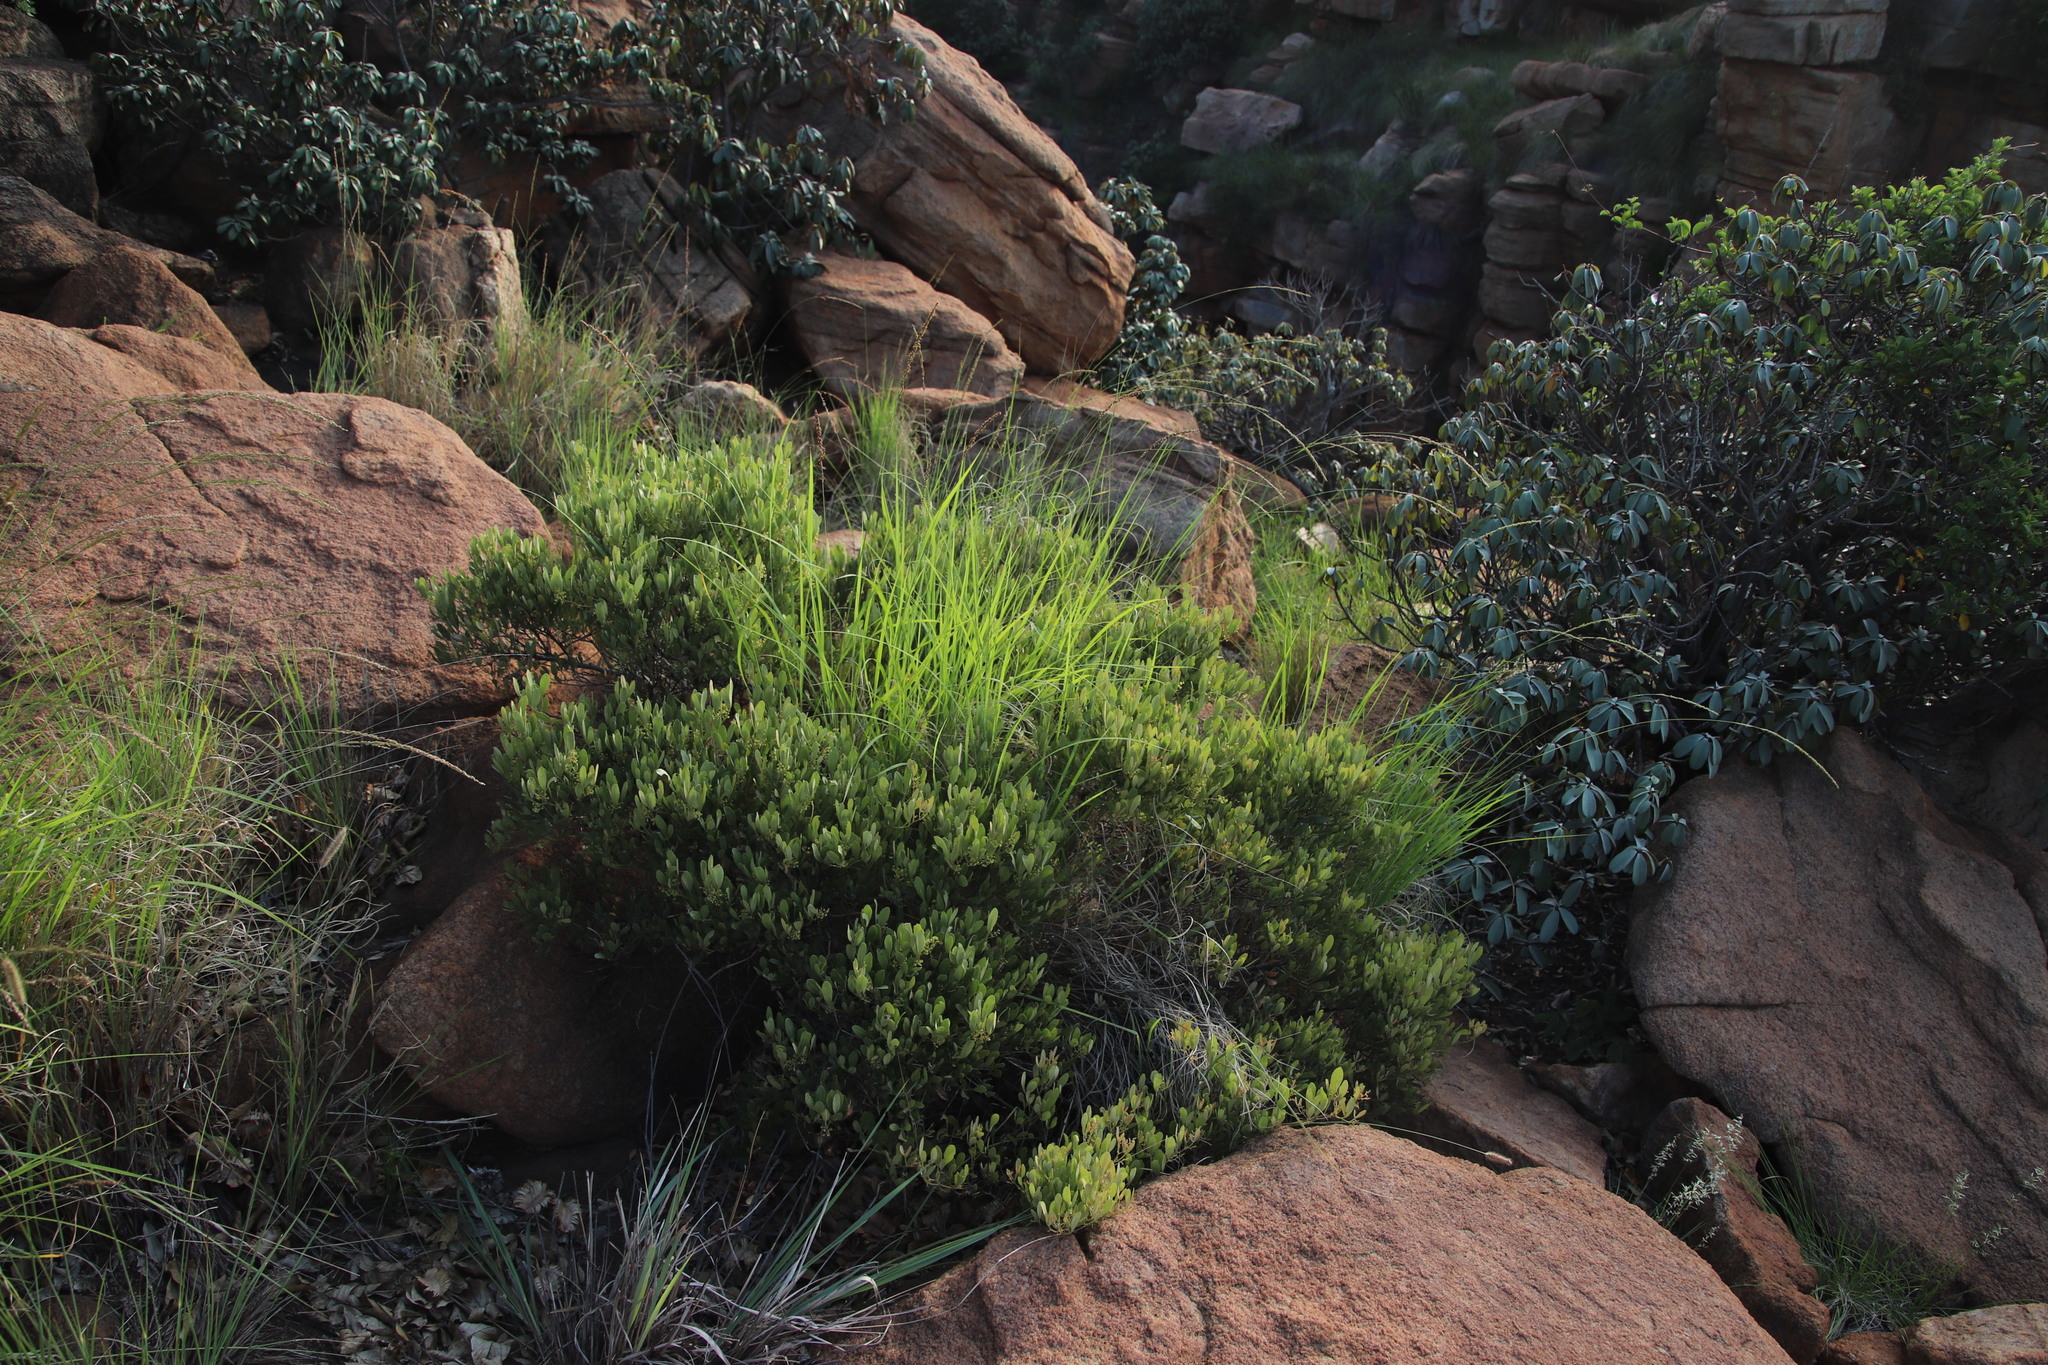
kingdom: Plantae
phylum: Tracheophyta
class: Magnoliopsida
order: Sapindales
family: Anacardiaceae
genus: Searsia
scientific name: Searsia magalismontana
